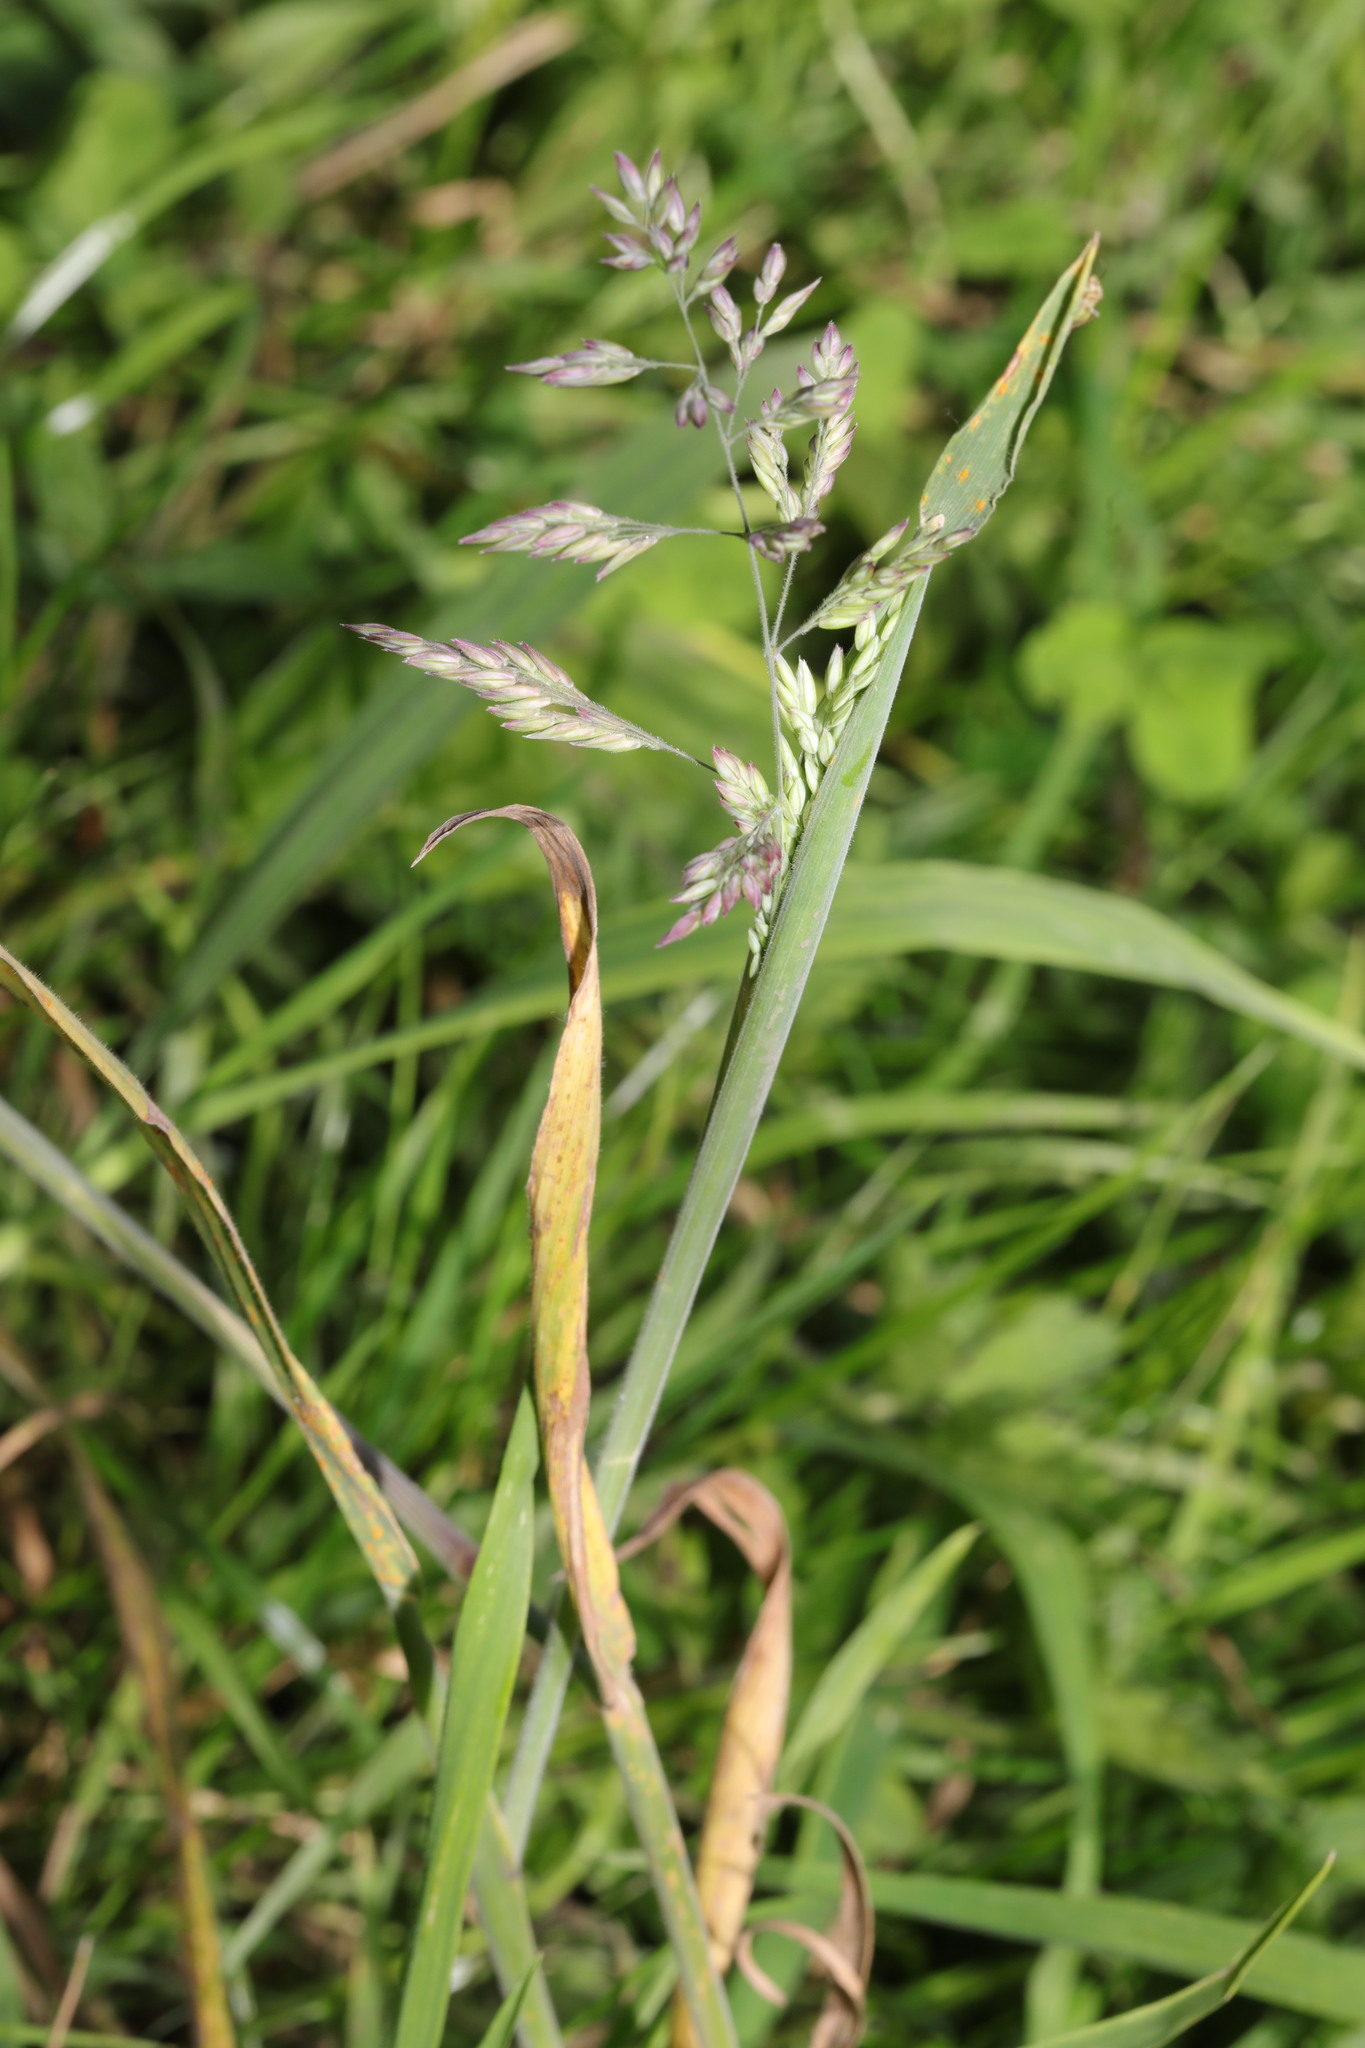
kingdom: Plantae
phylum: Tracheophyta
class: Liliopsida
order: Poales
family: Poaceae
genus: Holcus
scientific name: Holcus lanatus
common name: Yorkshire-fog
